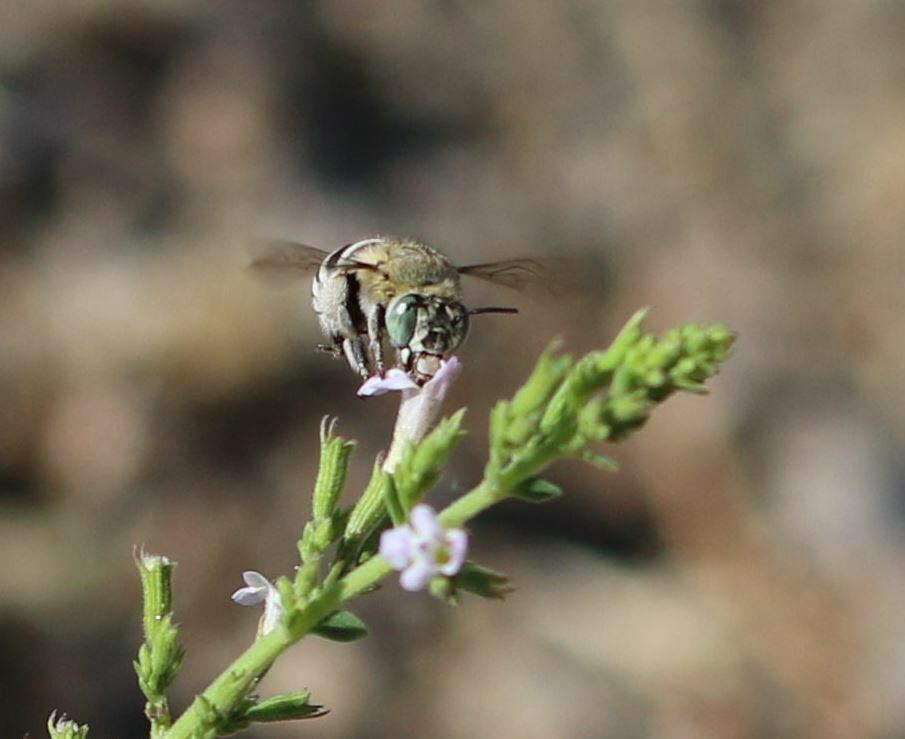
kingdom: Animalia
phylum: Arthropoda
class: Insecta
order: Hymenoptera
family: Apidae
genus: Amegilla
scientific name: Amegilla albigena
